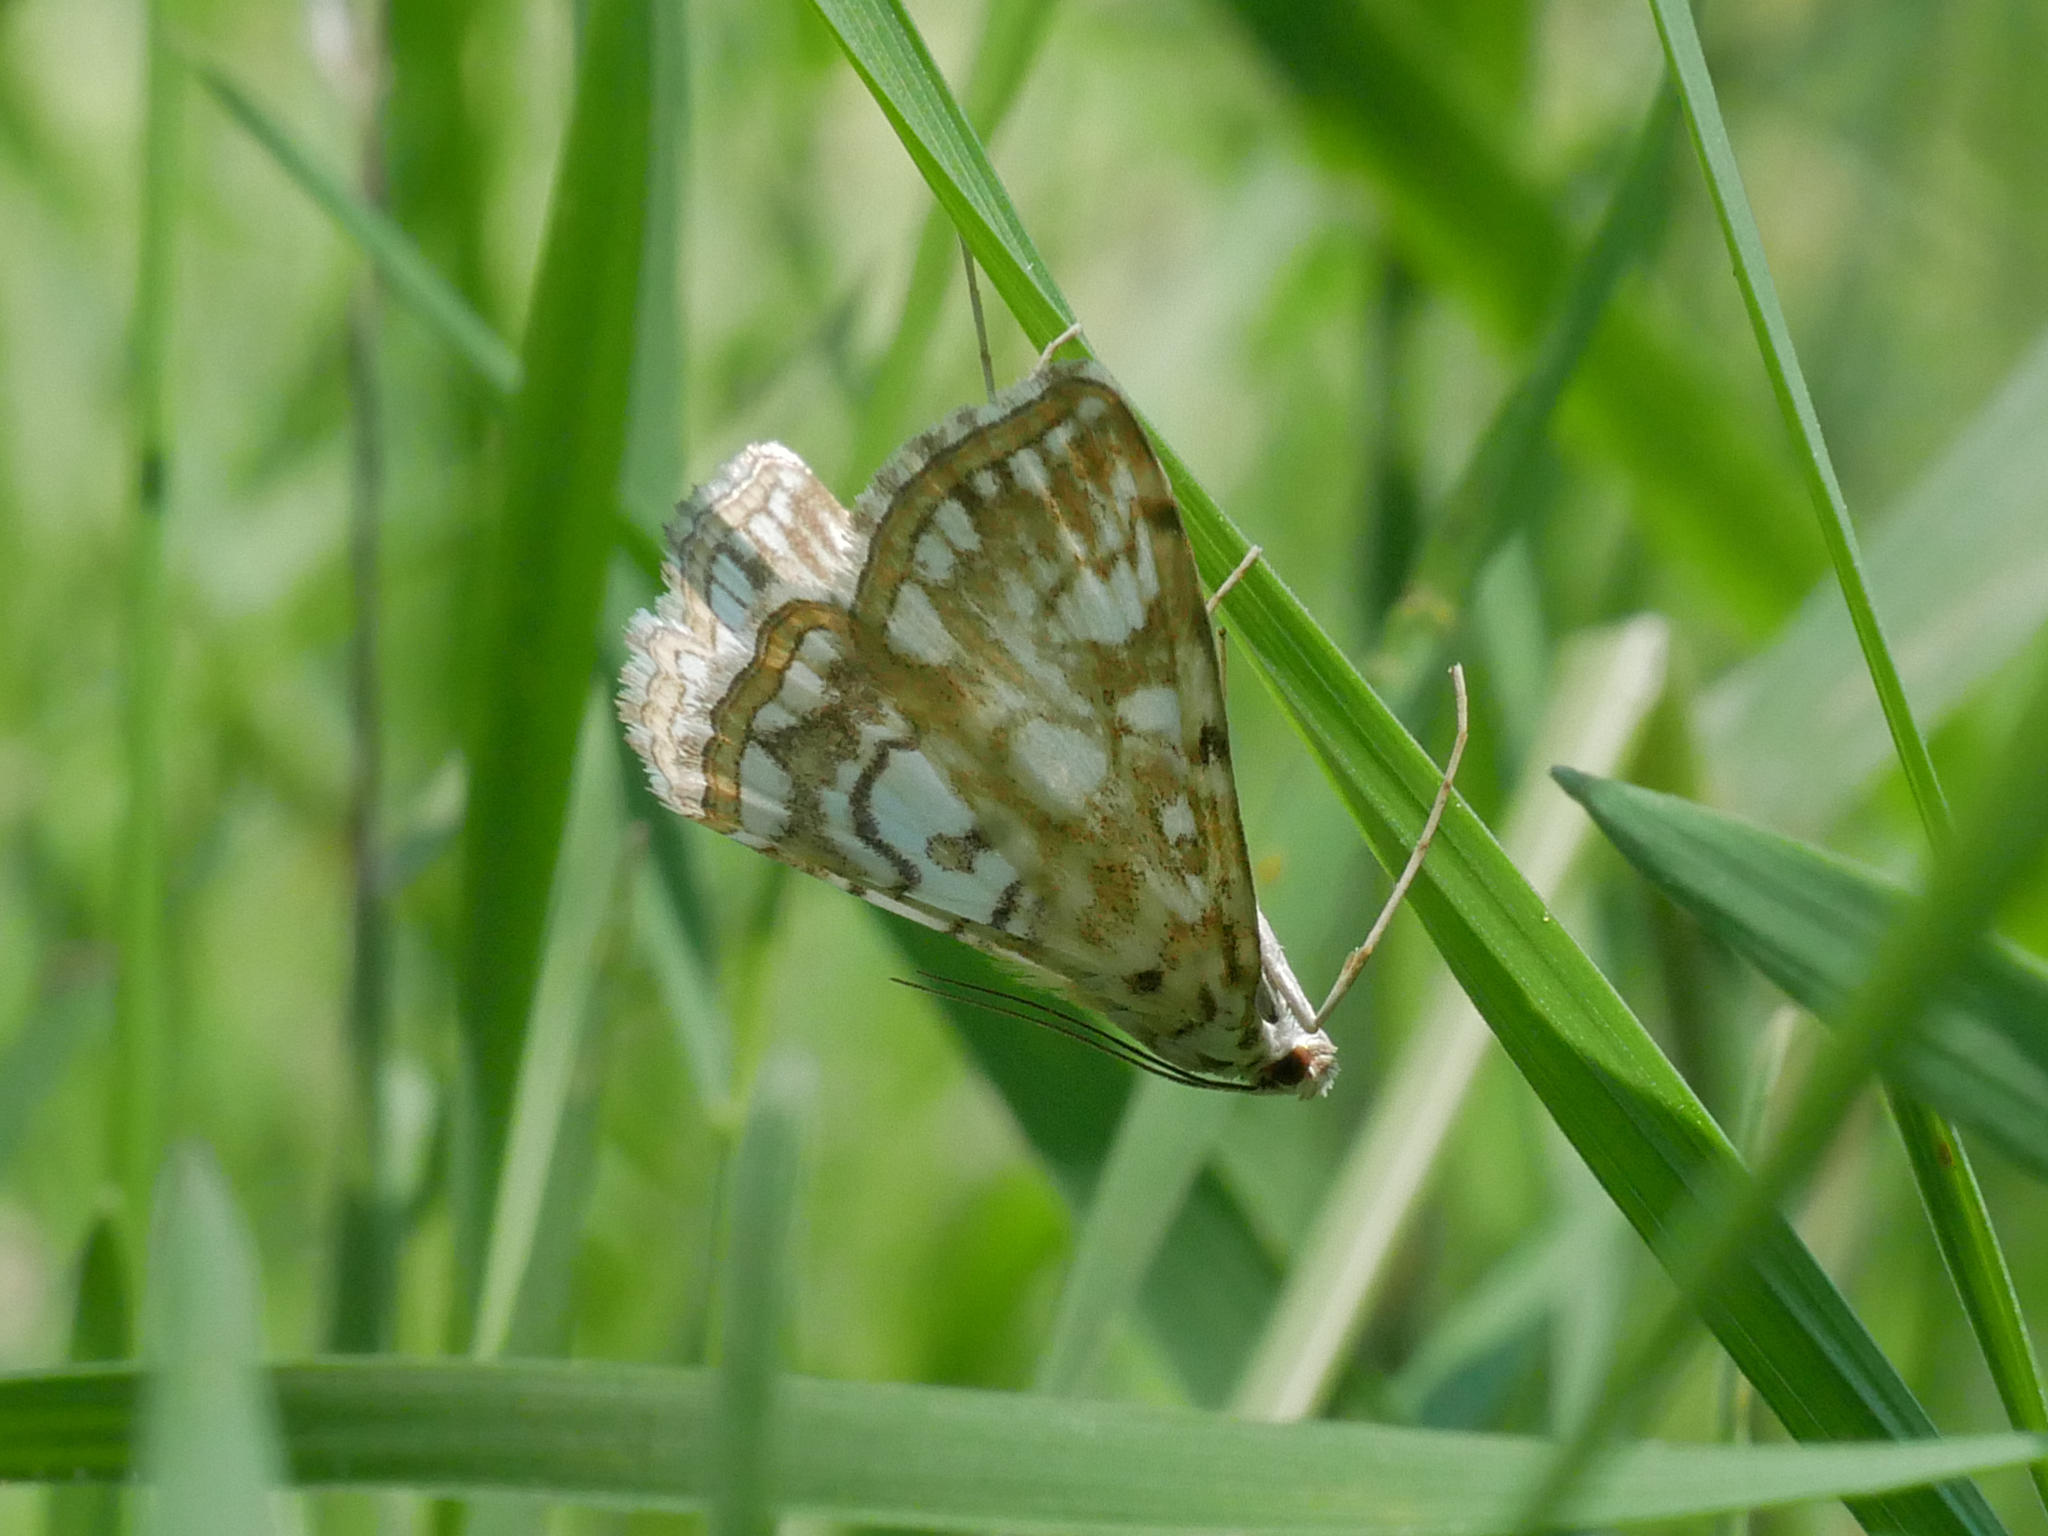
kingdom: Animalia
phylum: Arthropoda
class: Insecta
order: Lepidoptera
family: Crambidae
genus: Elophila
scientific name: Elophila nymphaeata
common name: Brown china-mark
